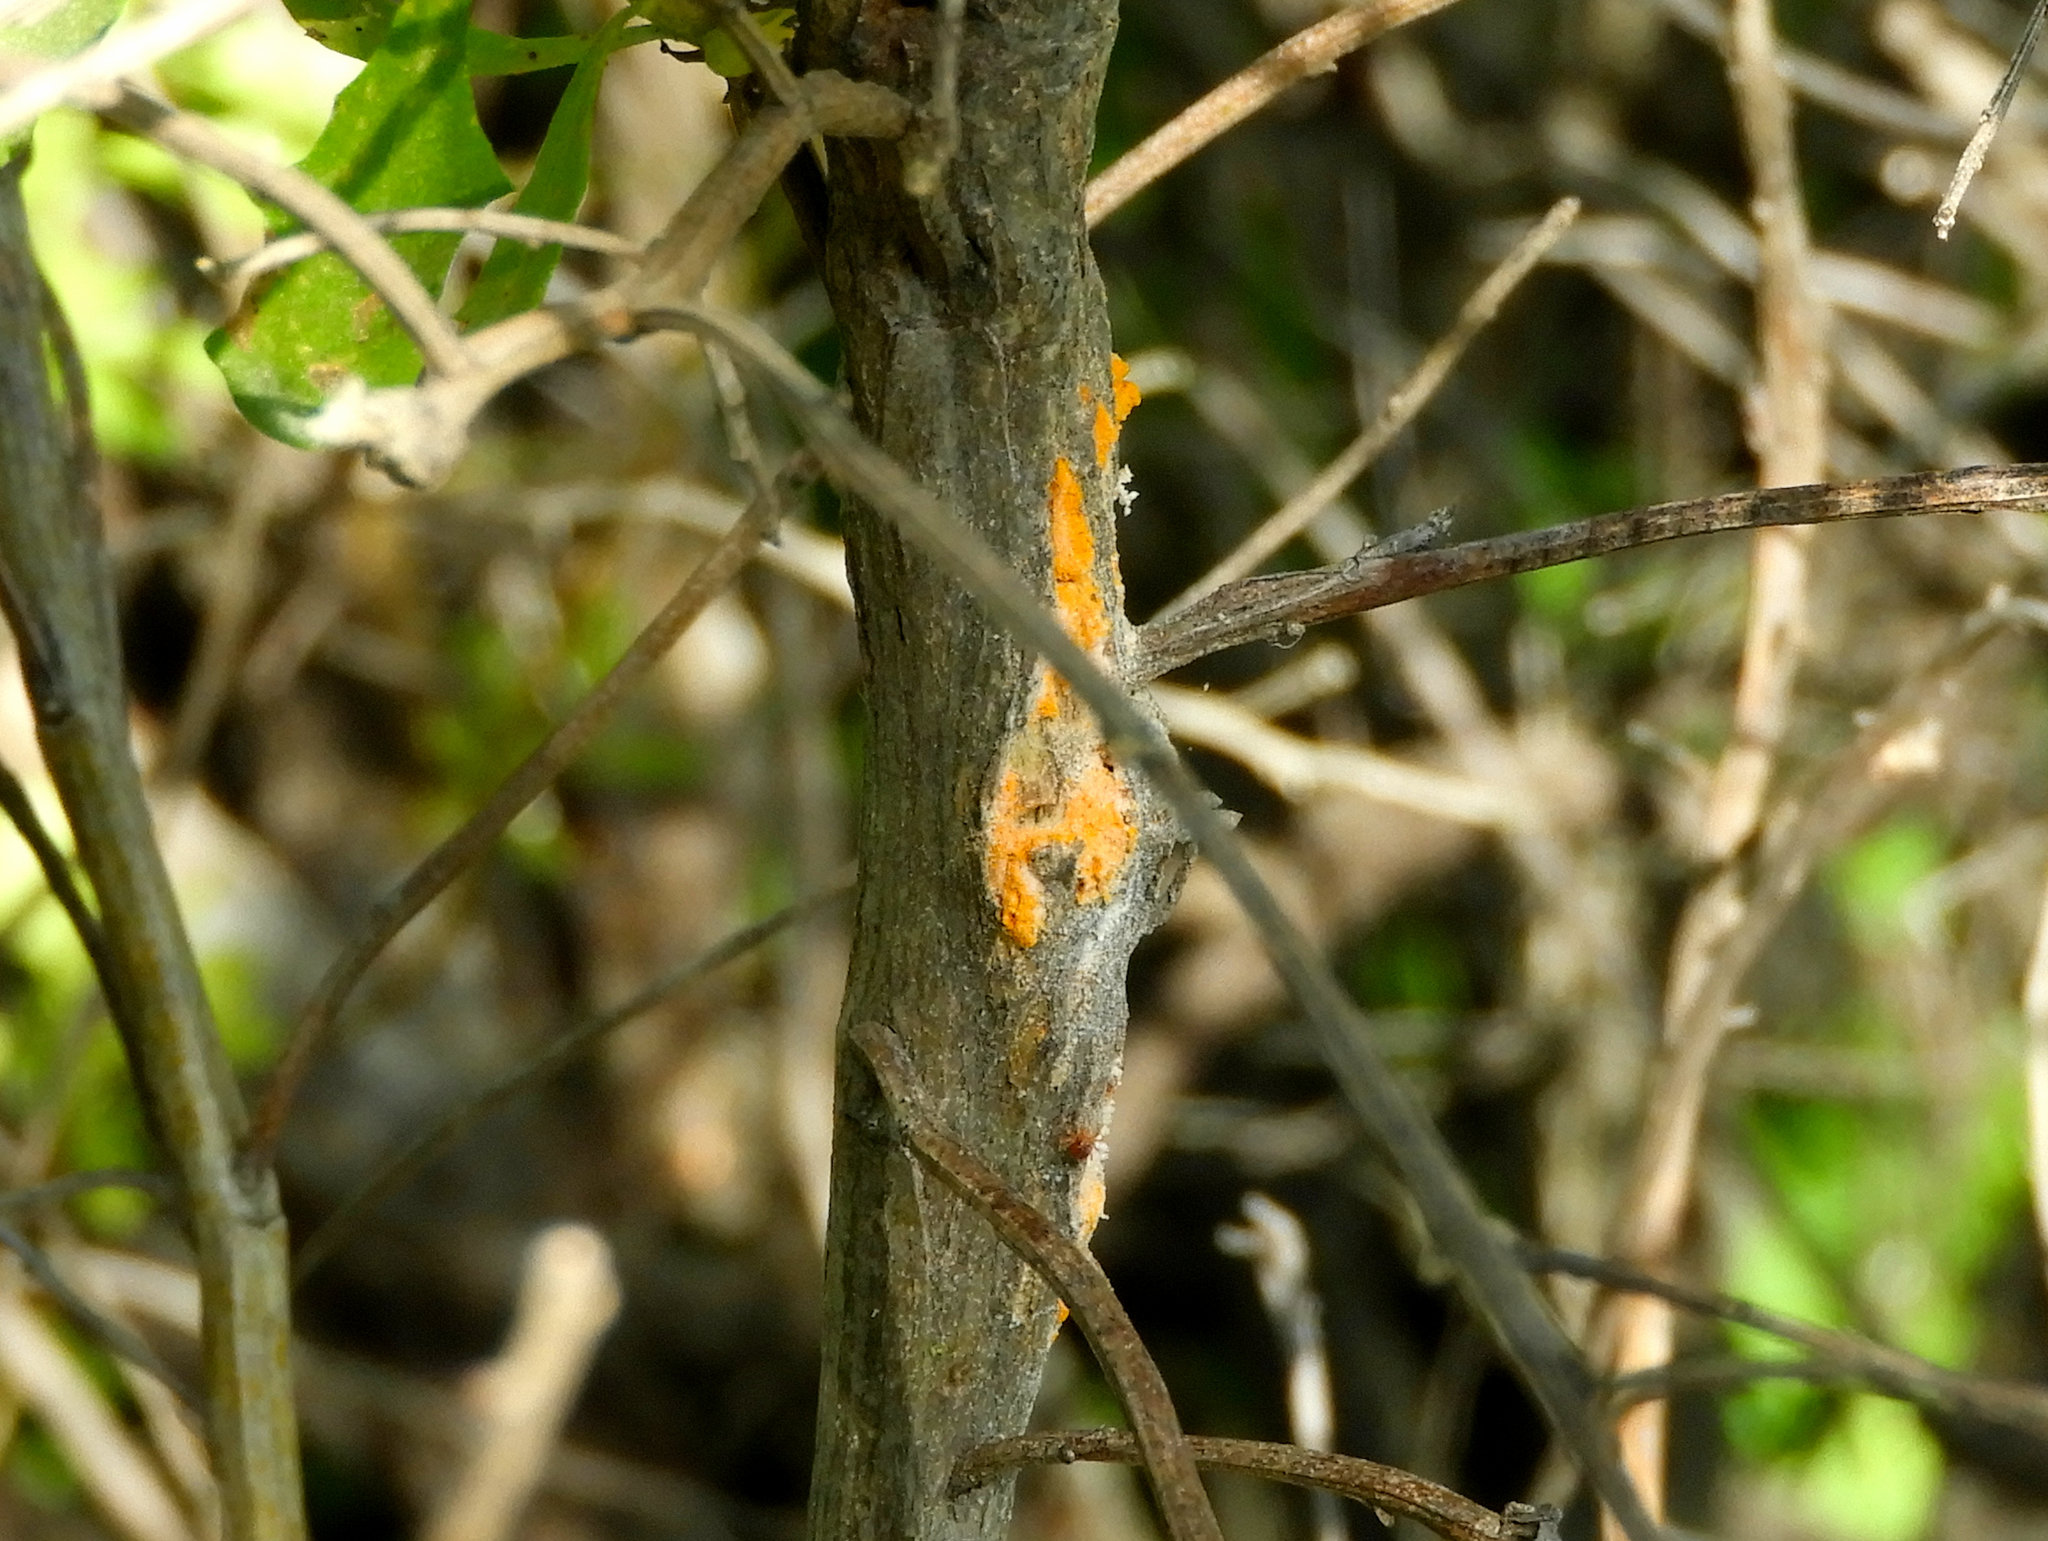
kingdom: Fungi
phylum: Basidiomycota
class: Pucciniomycetes
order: Pucciniales
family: Pucciniaceae
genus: Eriosporangium
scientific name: Eriosporangium evadens
